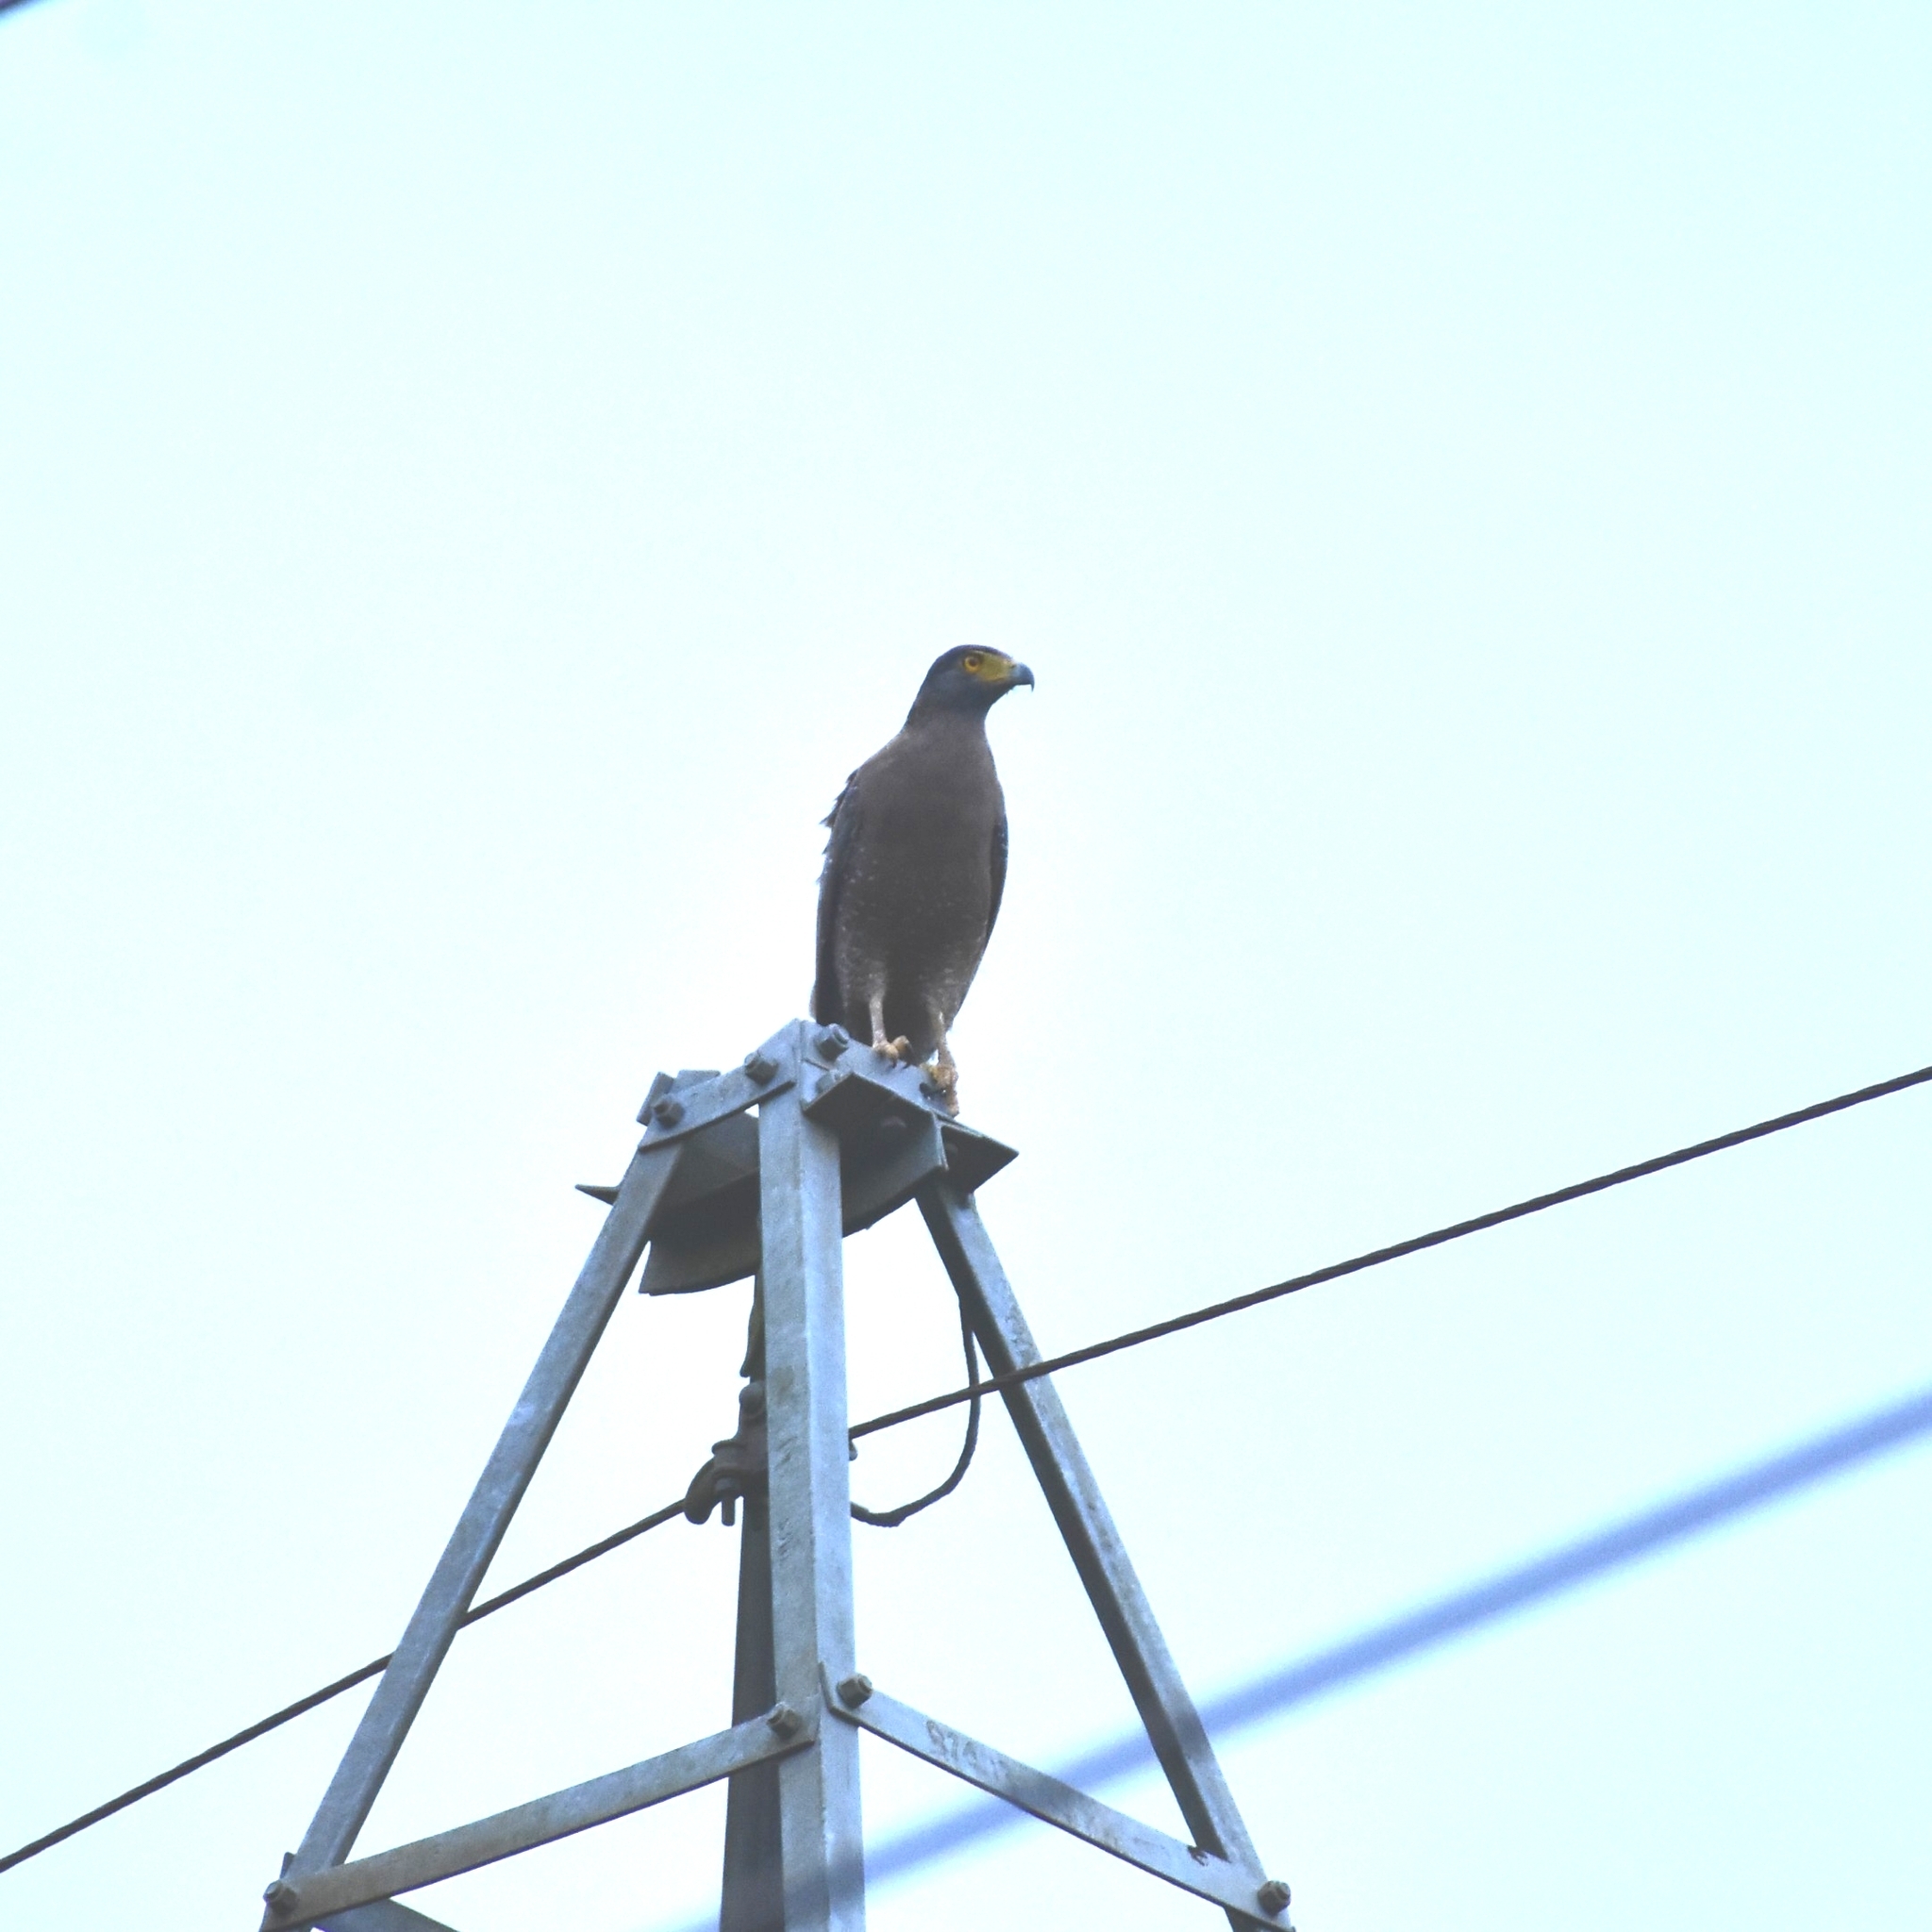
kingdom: Animalia
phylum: Chordata
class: Aves
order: Accipitriformes
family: Accipitridae
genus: Spilornis
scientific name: Spilornis cheela
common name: Crested serpent eagle
